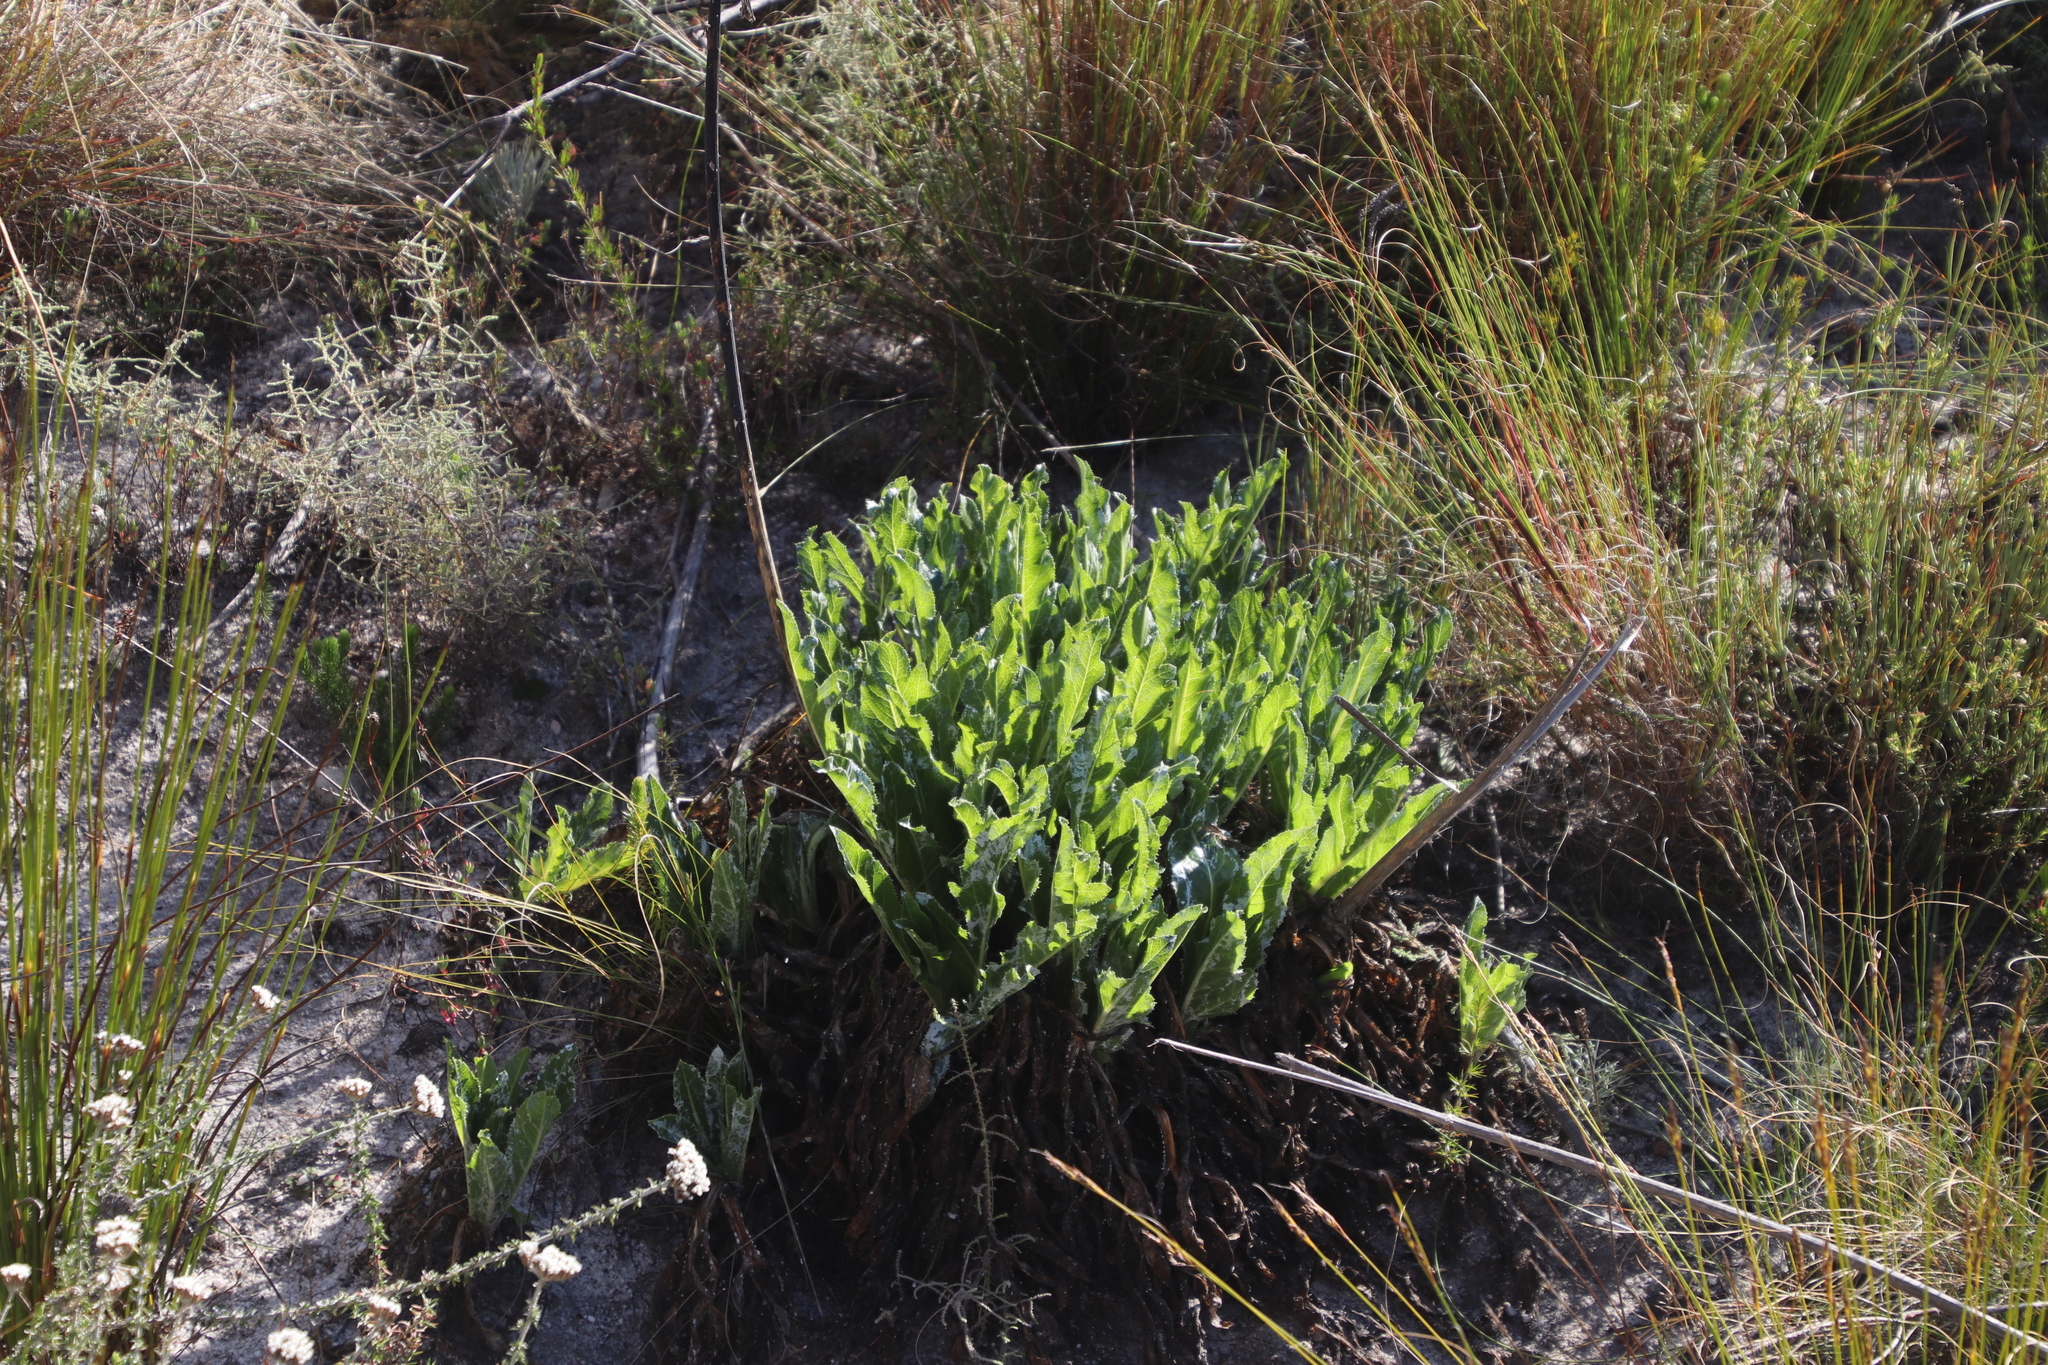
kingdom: Plantae
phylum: Tracheophyta
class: Magnoliopsida
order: Apiales
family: Apiaceae
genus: Lichtensteinia
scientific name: Lichtensteinia trifida
